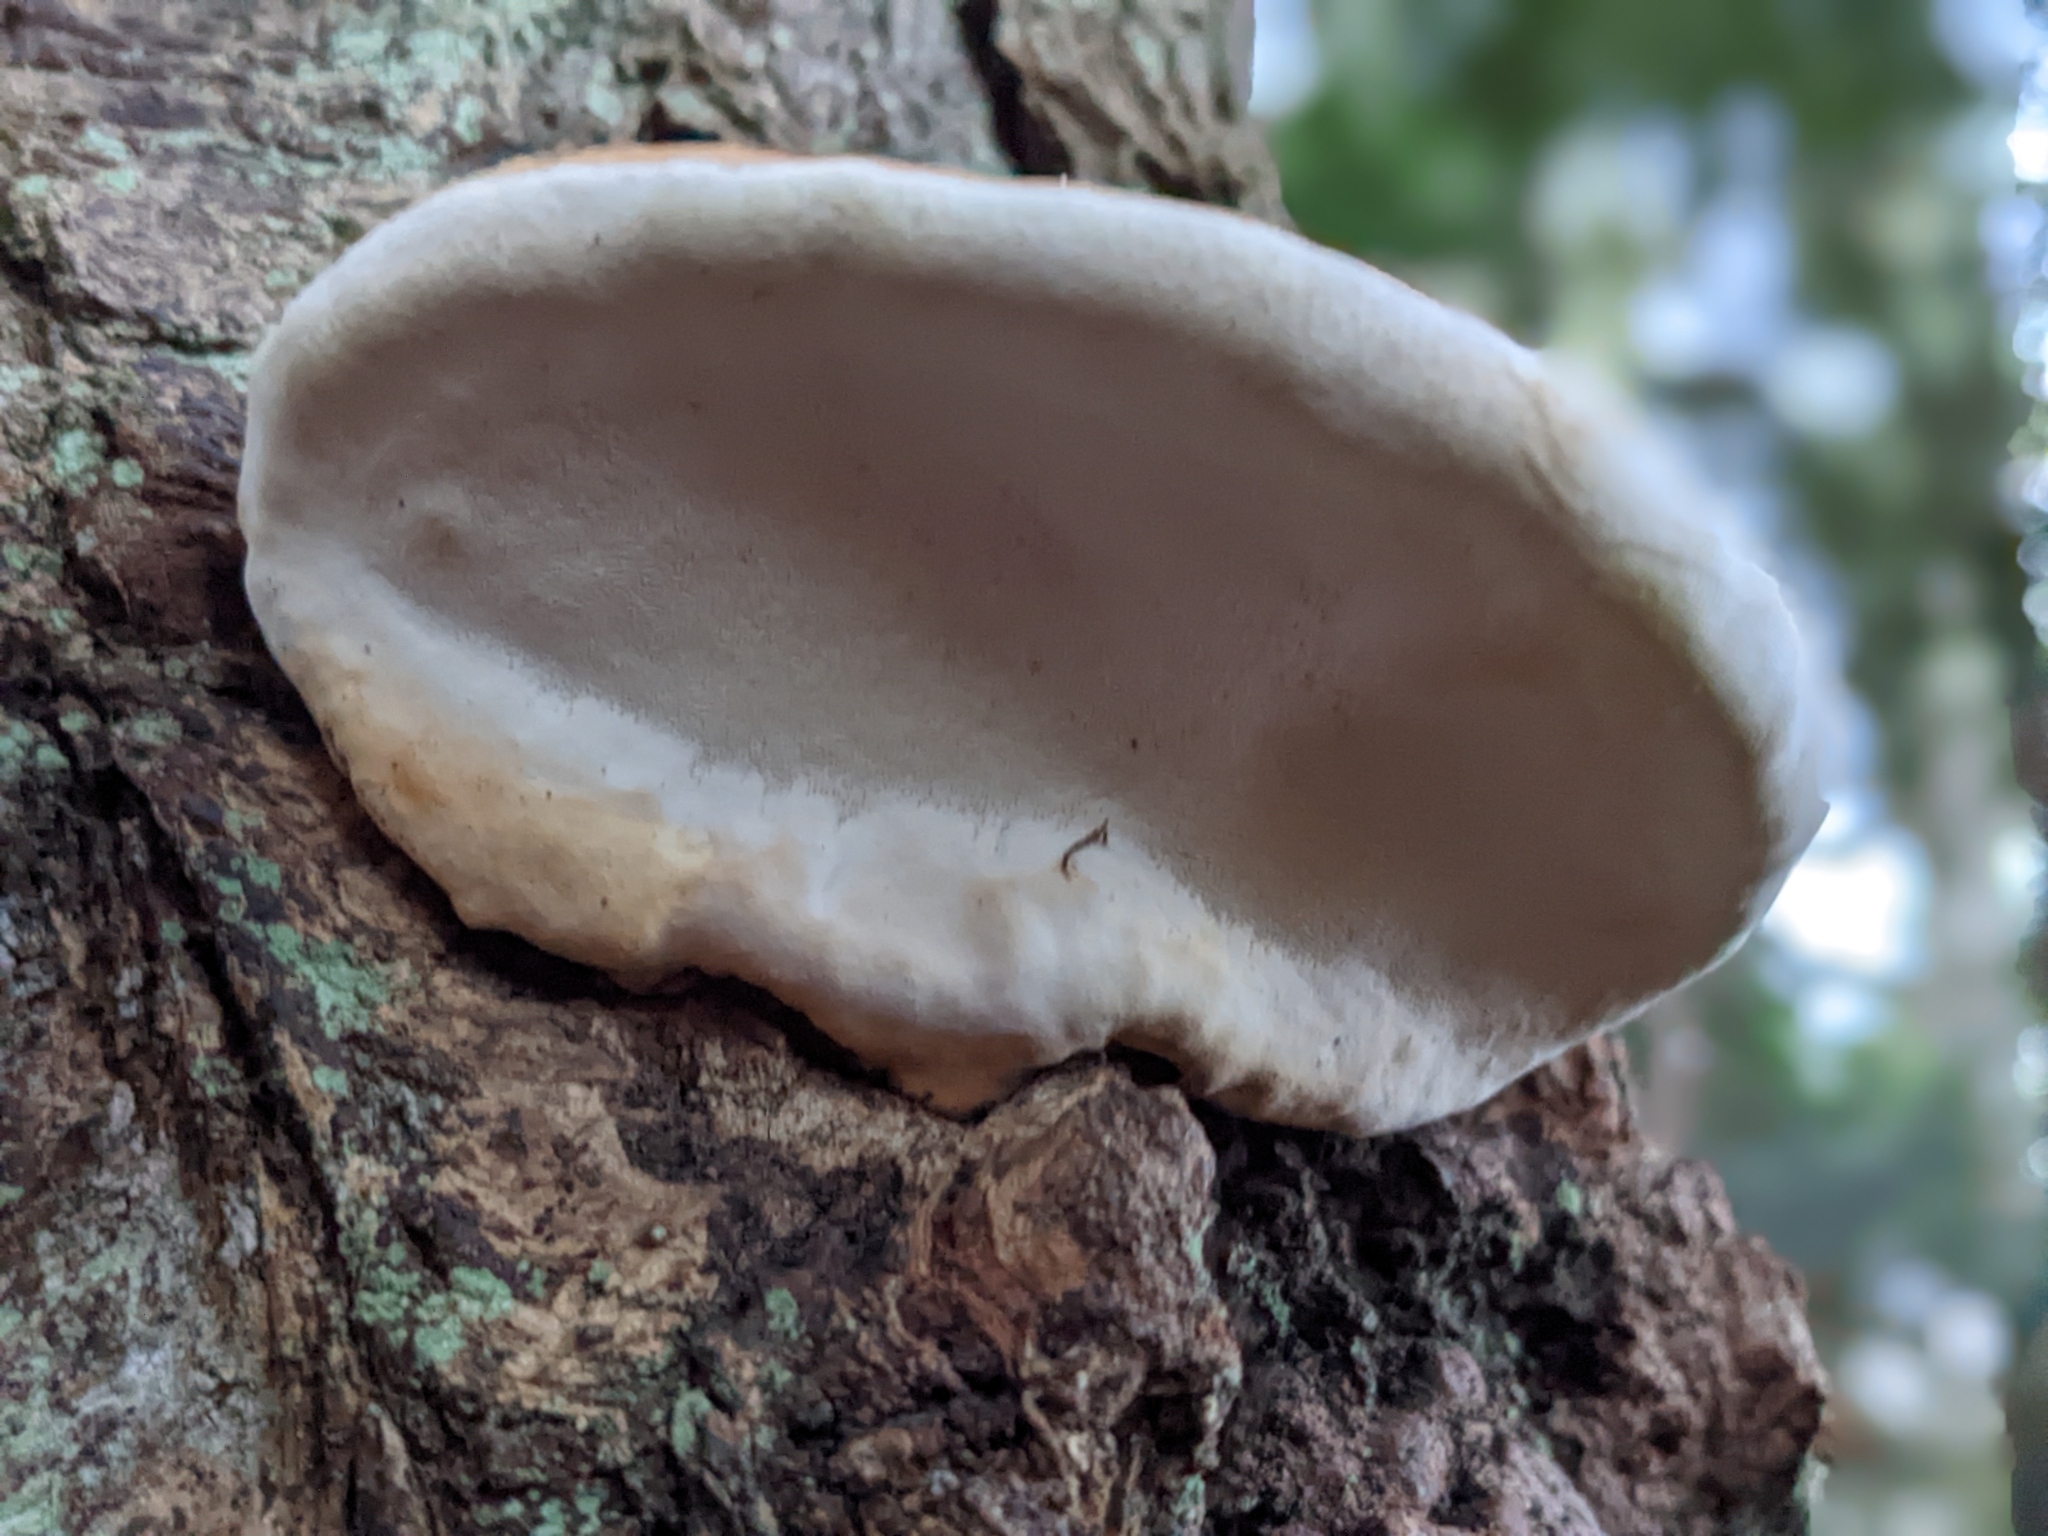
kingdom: Fungi
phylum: Basidiomycota
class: Agaricomycetes
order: Polyporales
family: Fomitopsidaceae
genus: Fomitopsis
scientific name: Fomitopsis mounceae
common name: Northern red belt
